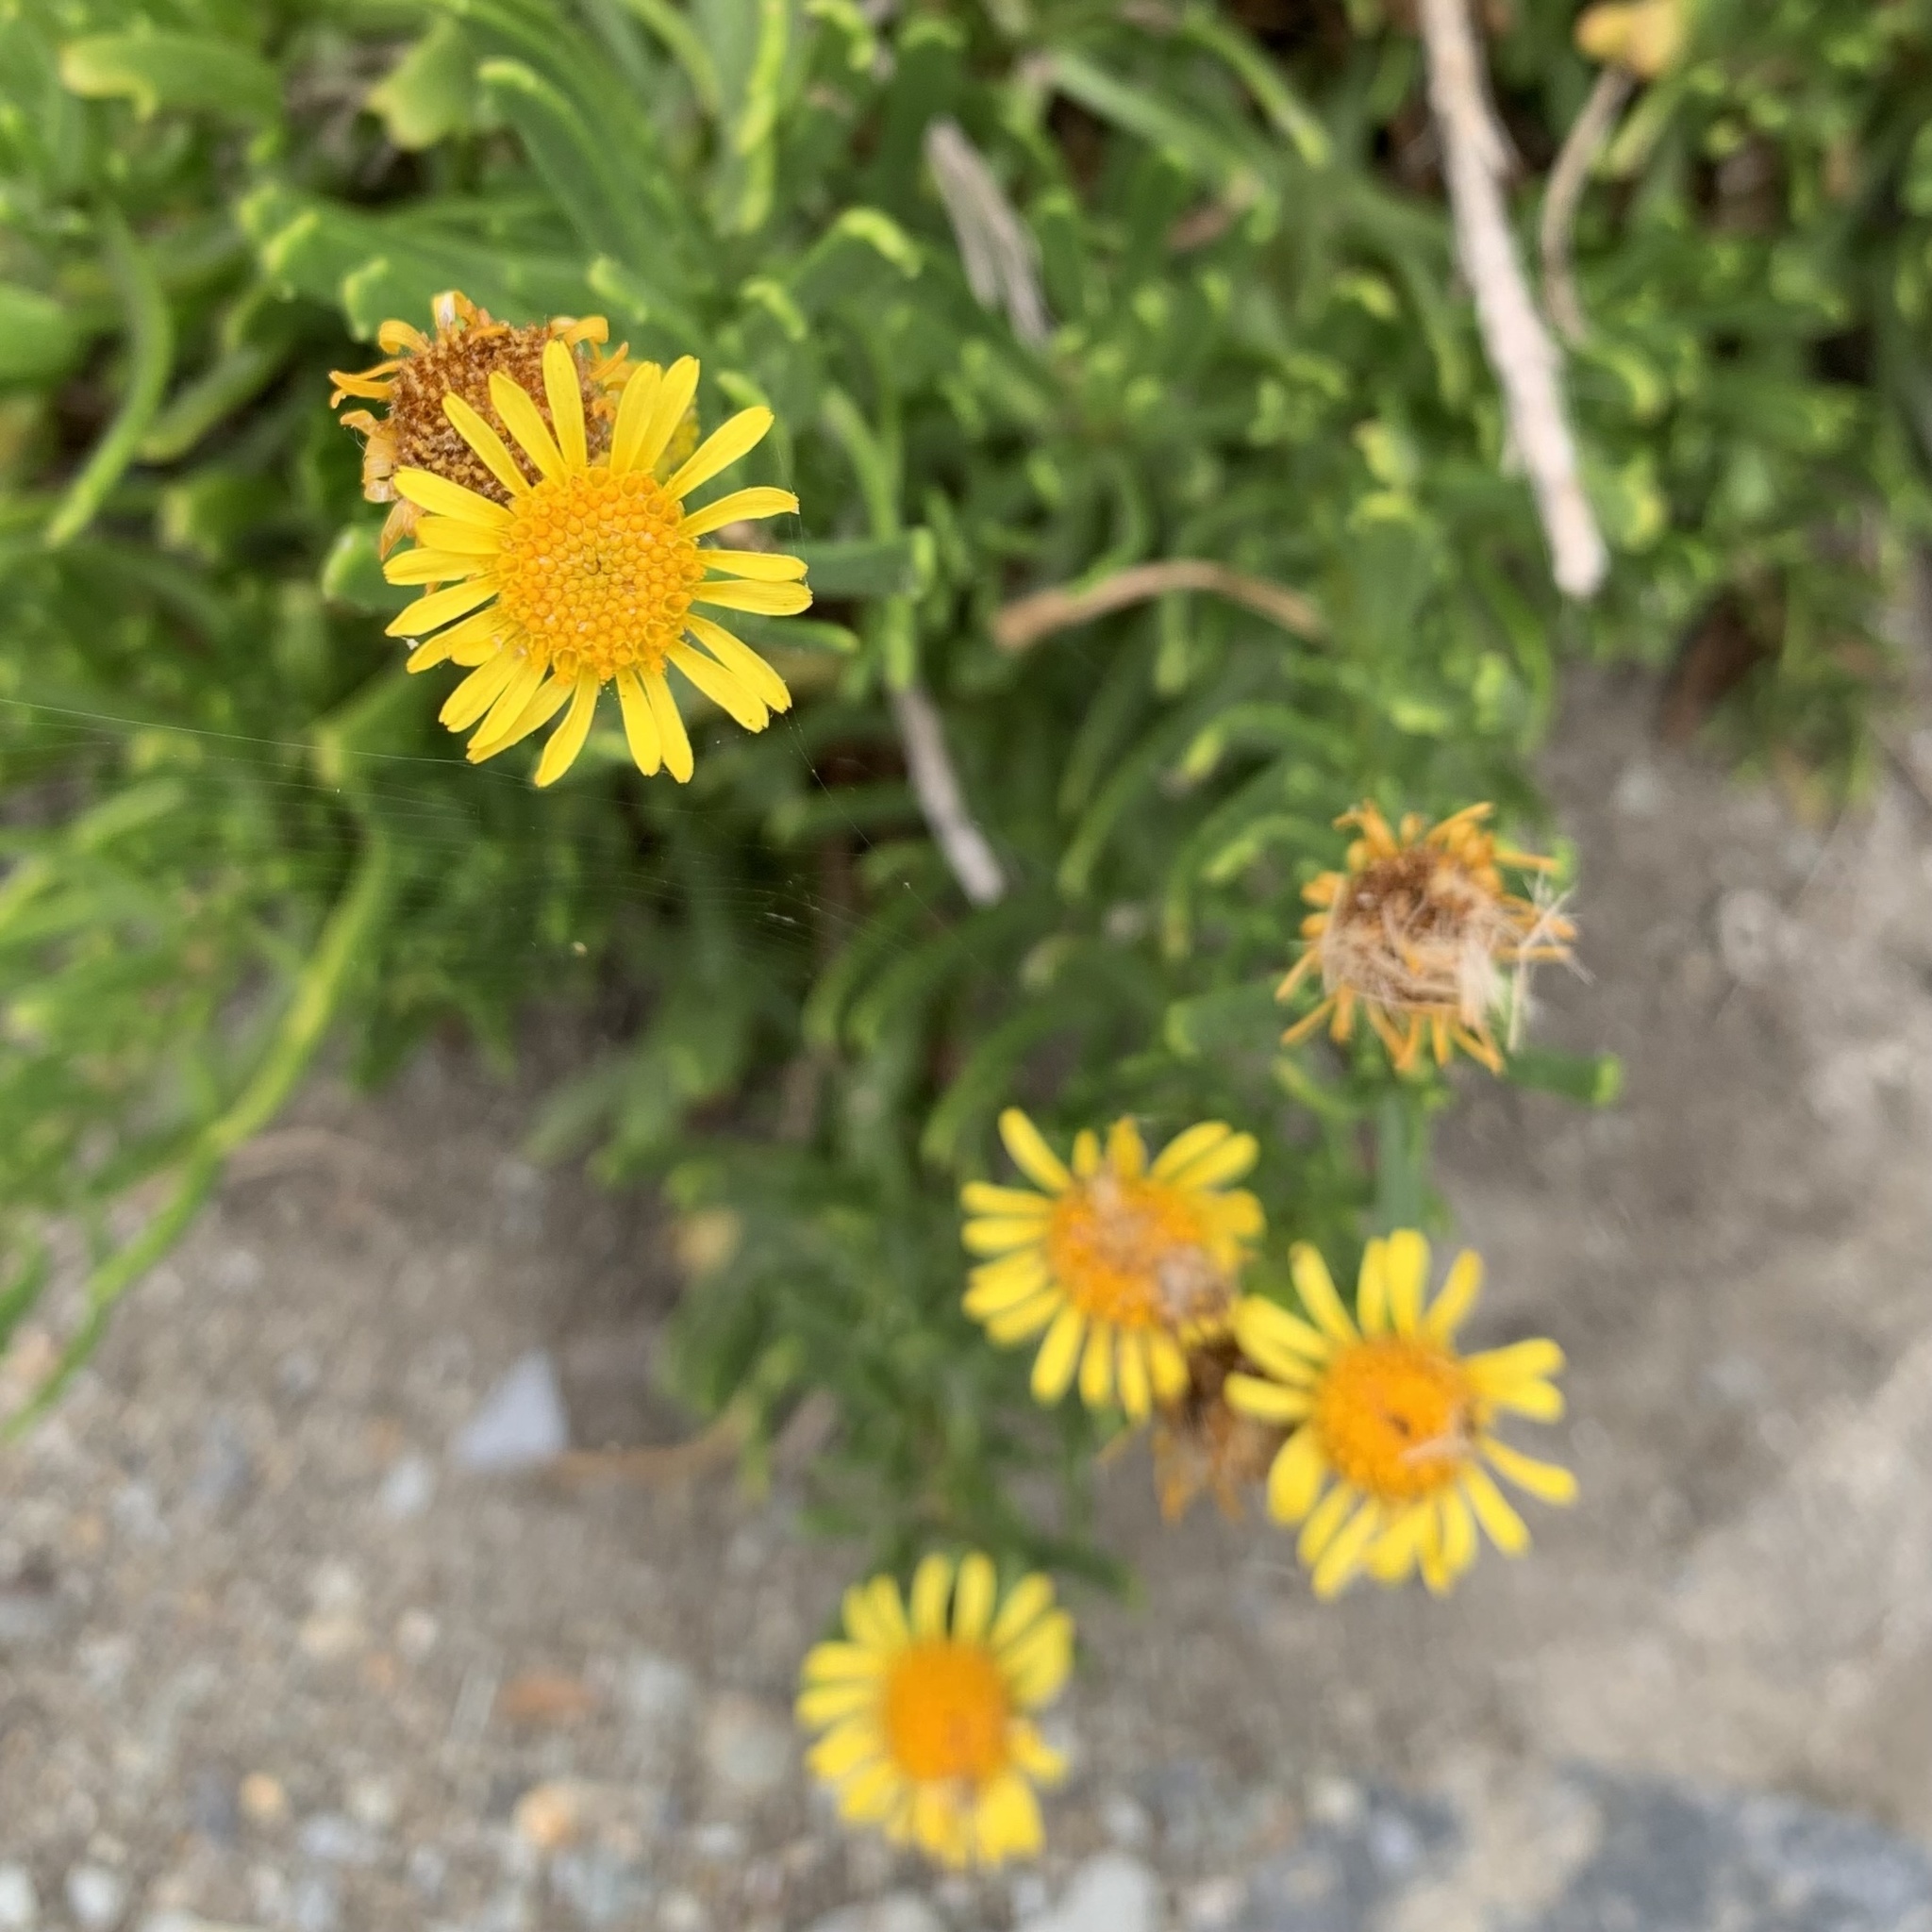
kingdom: Plantae
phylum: Tracheophyta
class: Magnoliopsida
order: Asterales
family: Asteraceae
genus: Limbarda
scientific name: Limbarda crithmoides
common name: Golden samphire
